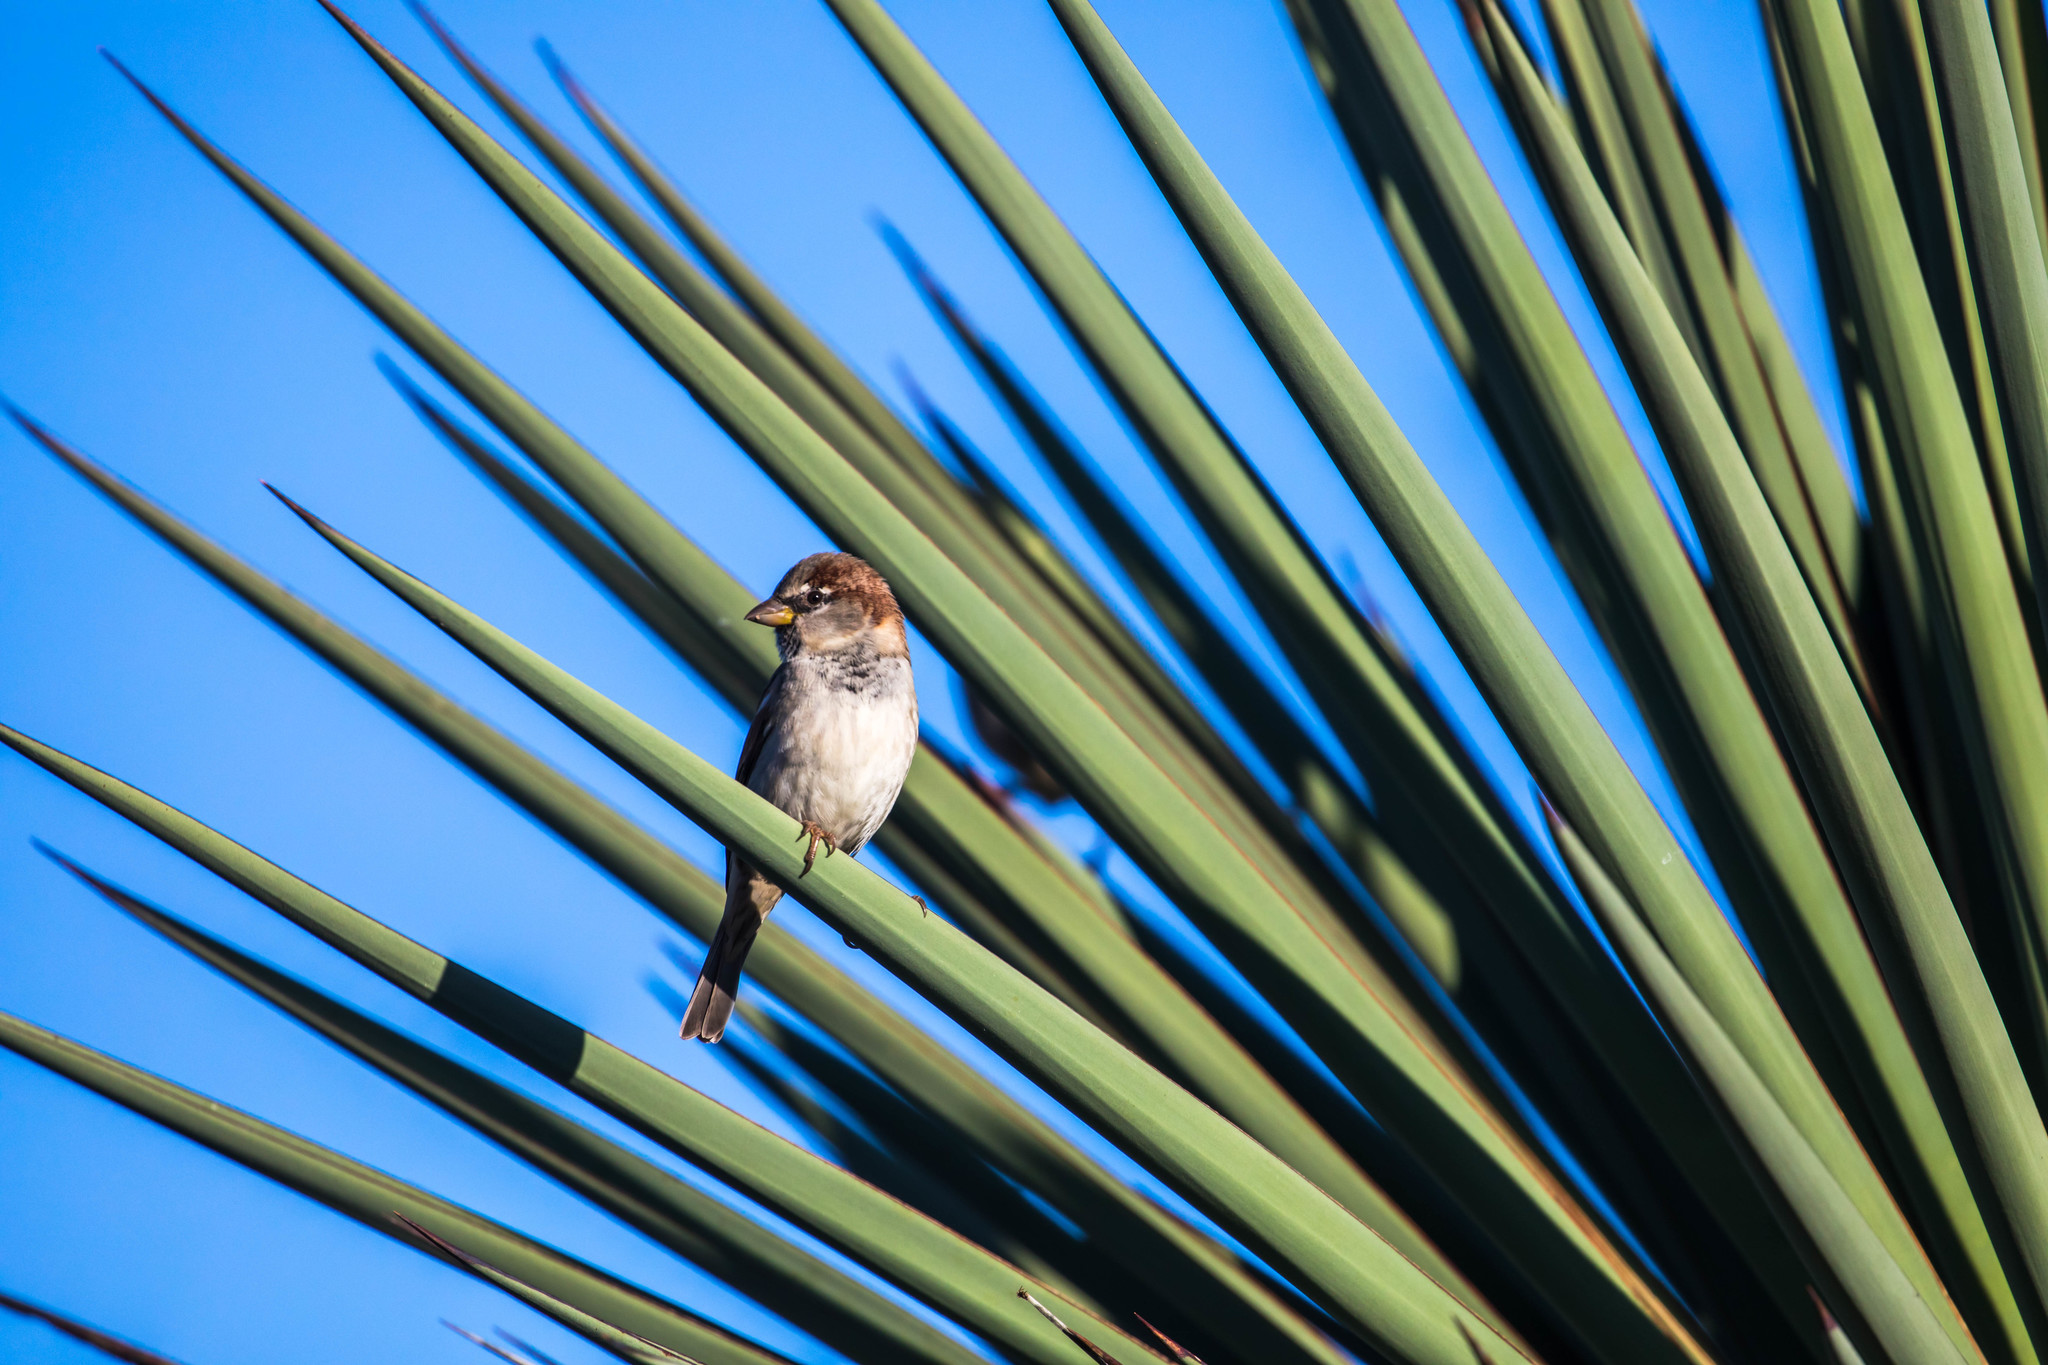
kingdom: Animalia
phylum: Chordata
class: Aves
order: Passeriformes
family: Passeridae
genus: Passer
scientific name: Passer domesticus
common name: House sparrow
